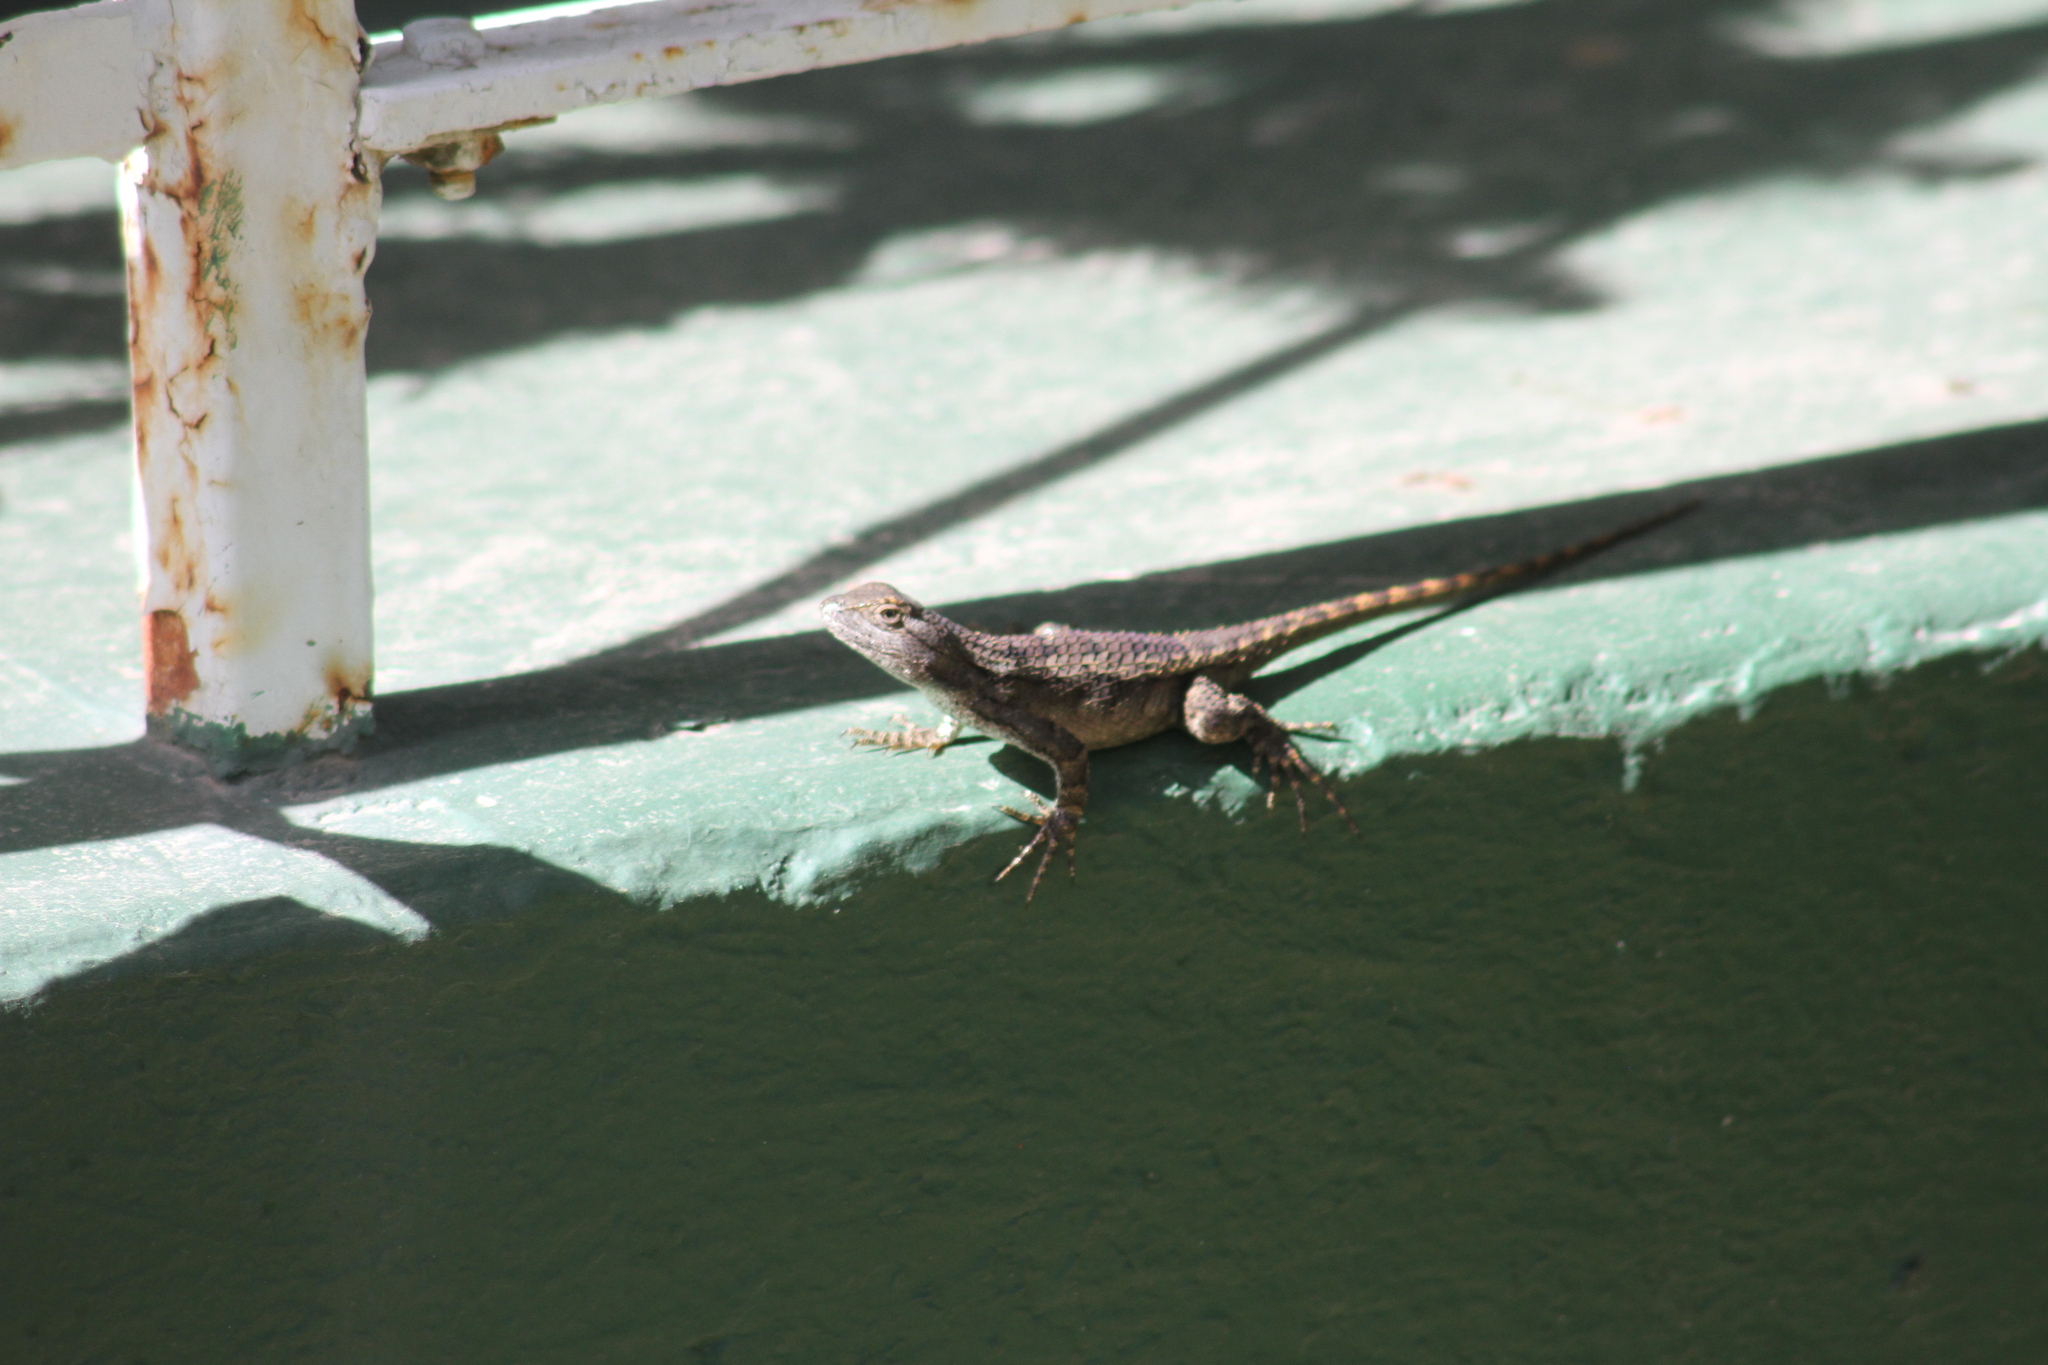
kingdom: Animalia
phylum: Chordata
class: Squamata
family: Phrynosomatidae
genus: Sceloporus
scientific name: Sceloporus olivaceus
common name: Texas spiny lizard
